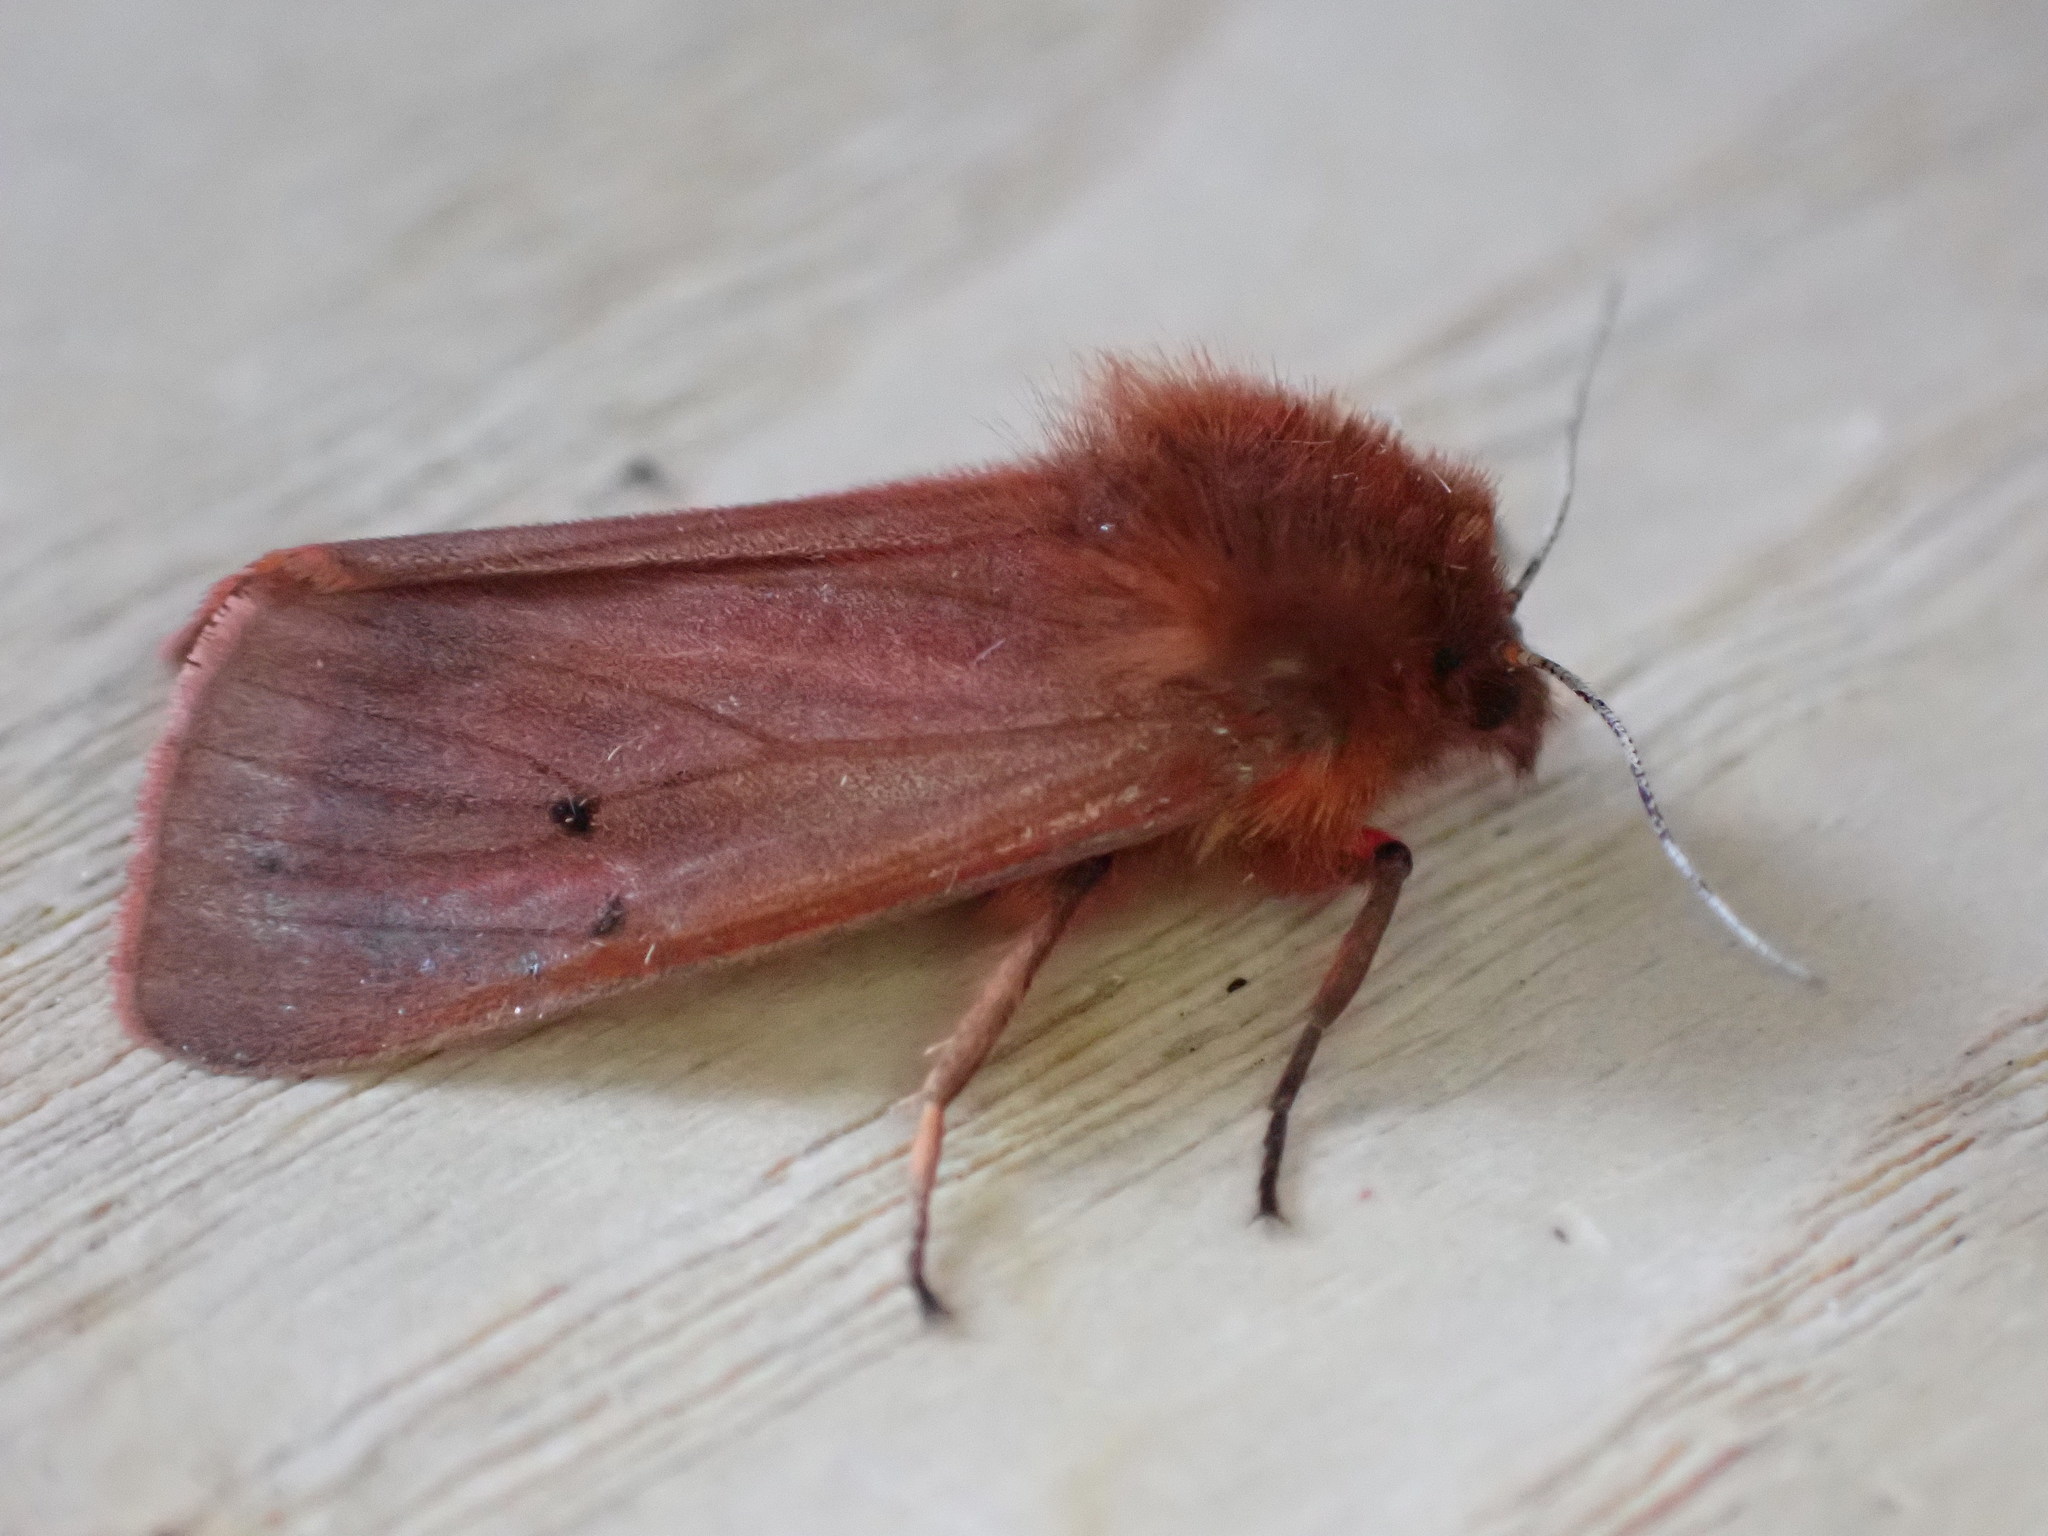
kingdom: Animalia
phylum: Arthropoda
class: Insecta
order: Lepidoptera
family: Erebidae
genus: Phragmatobia
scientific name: Phragmatobia fuliginosa
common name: Ruby tiger
